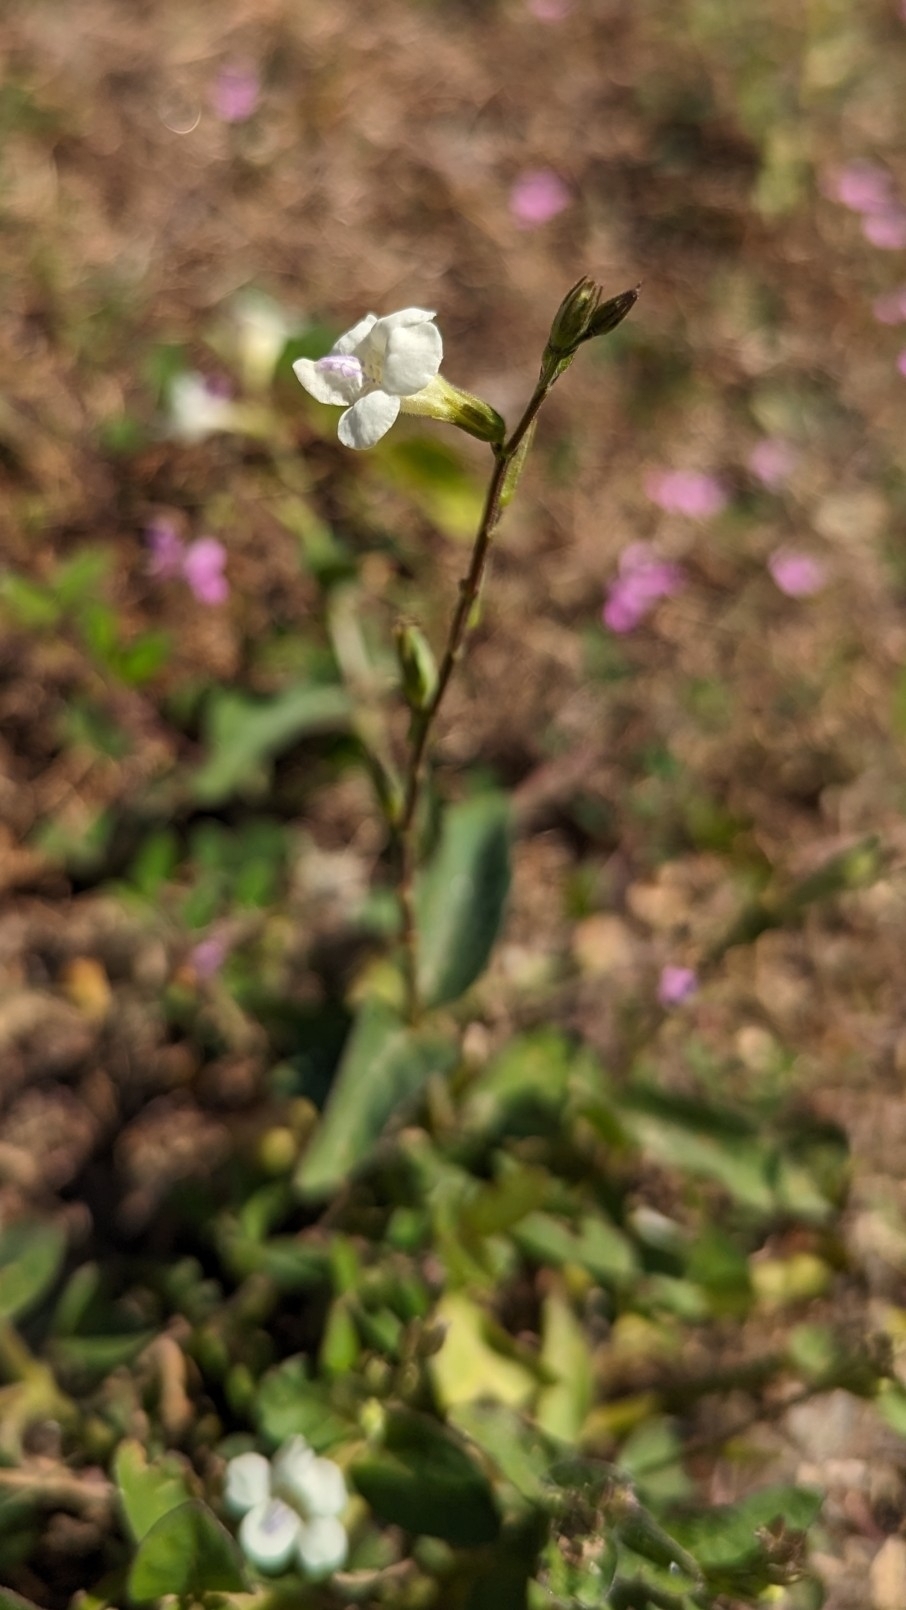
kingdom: Plantae
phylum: Tracheophyta
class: Magnoliopsida
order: Lamiales
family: Acanthaceae
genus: Asystasia
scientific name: Asystasia intrusa
